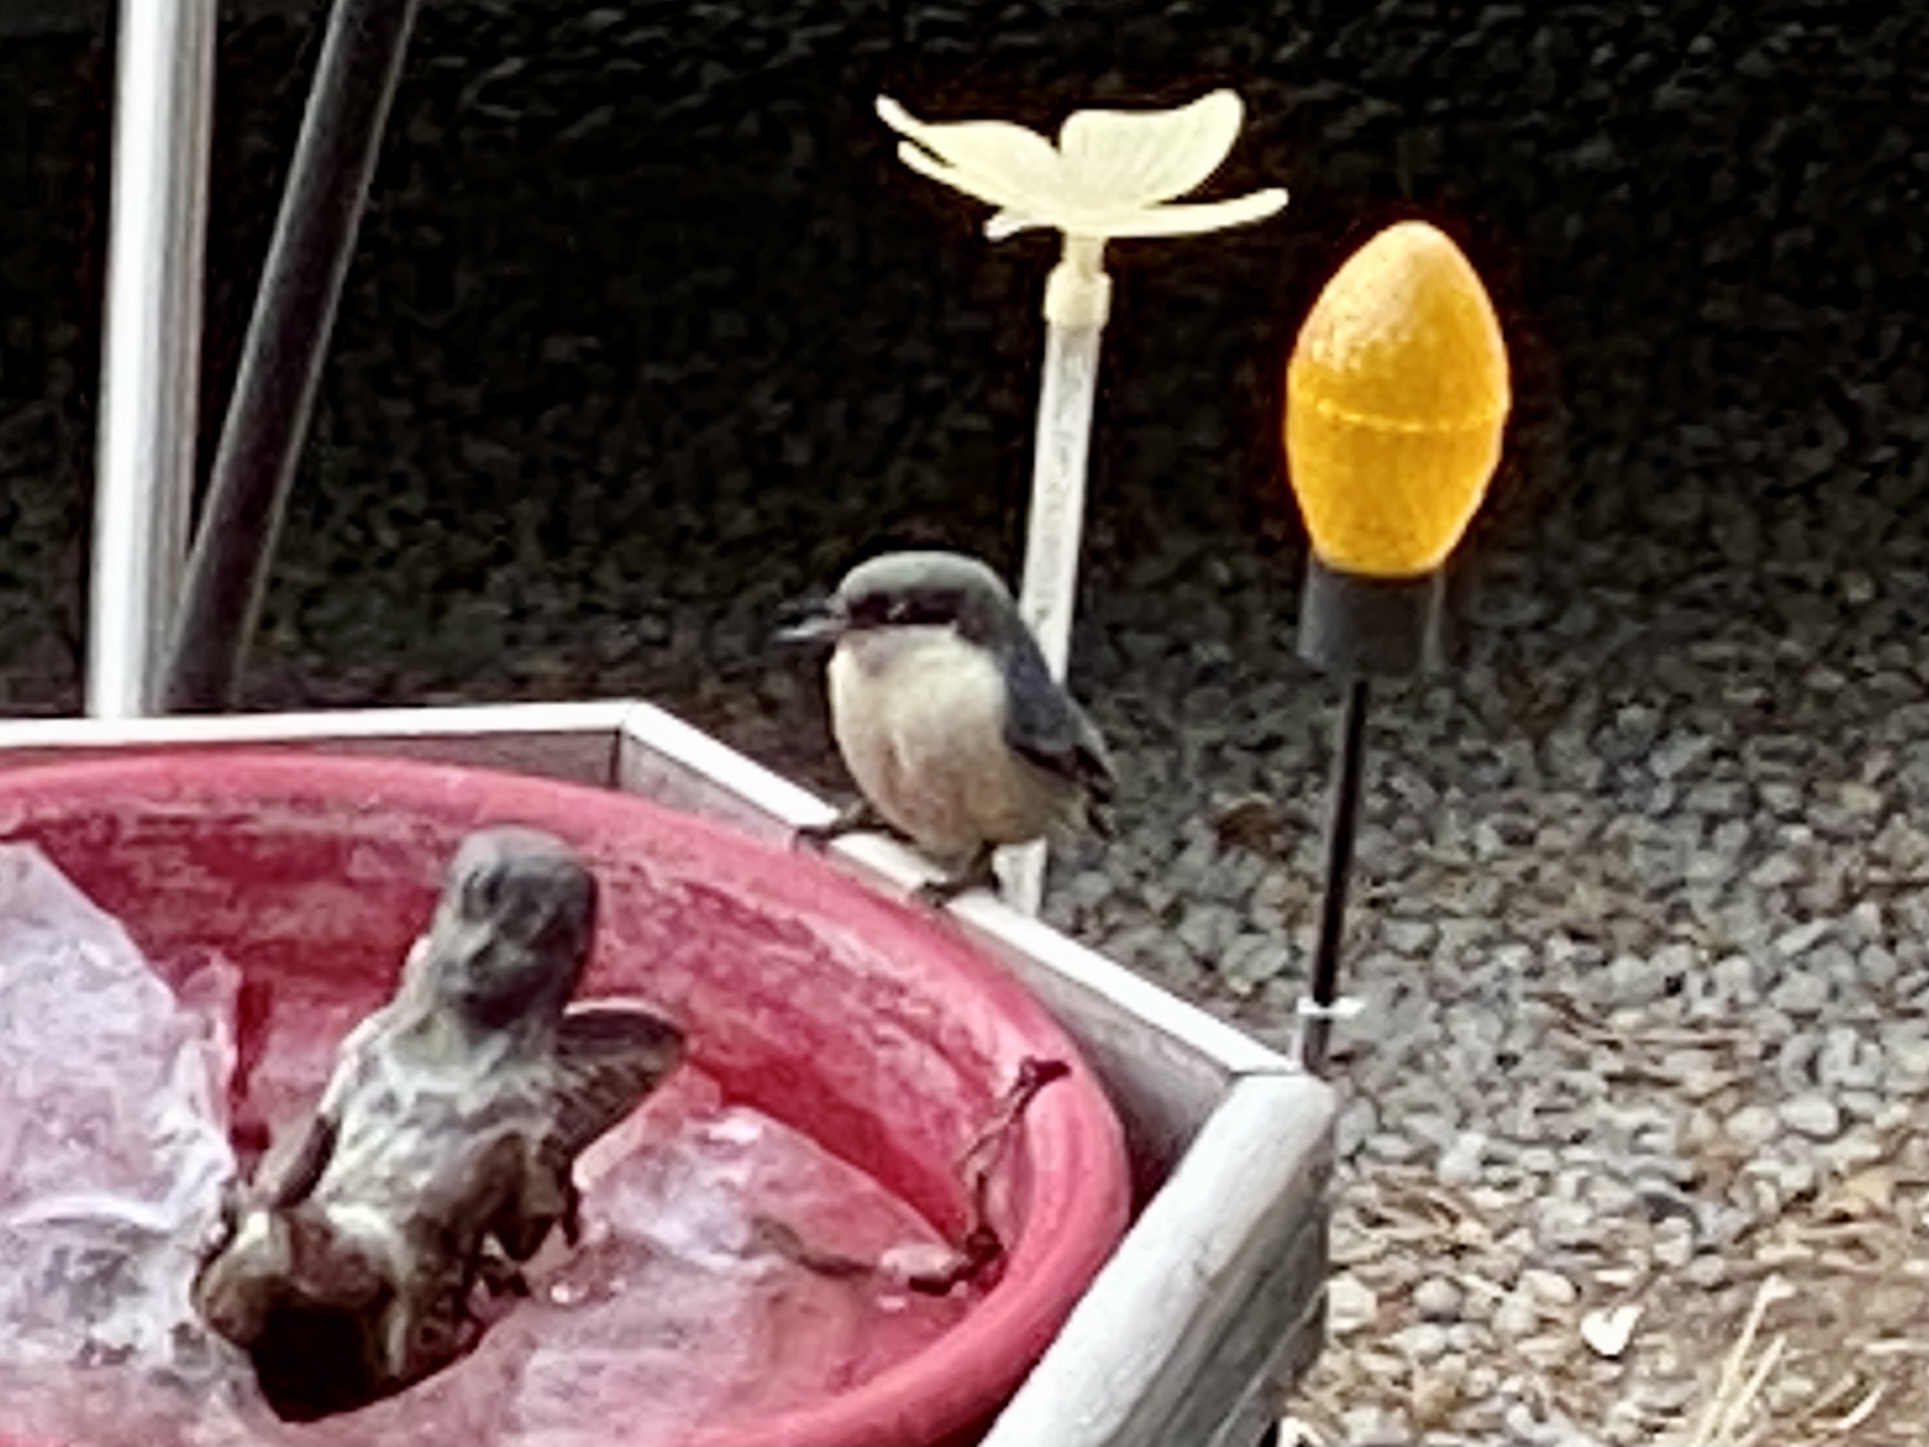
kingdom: Animalia
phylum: Chordata
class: Aves
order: Passeriformes
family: Sittidae
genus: Sitta
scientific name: Sitta pygmaea
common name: Pygmy nuthatch
